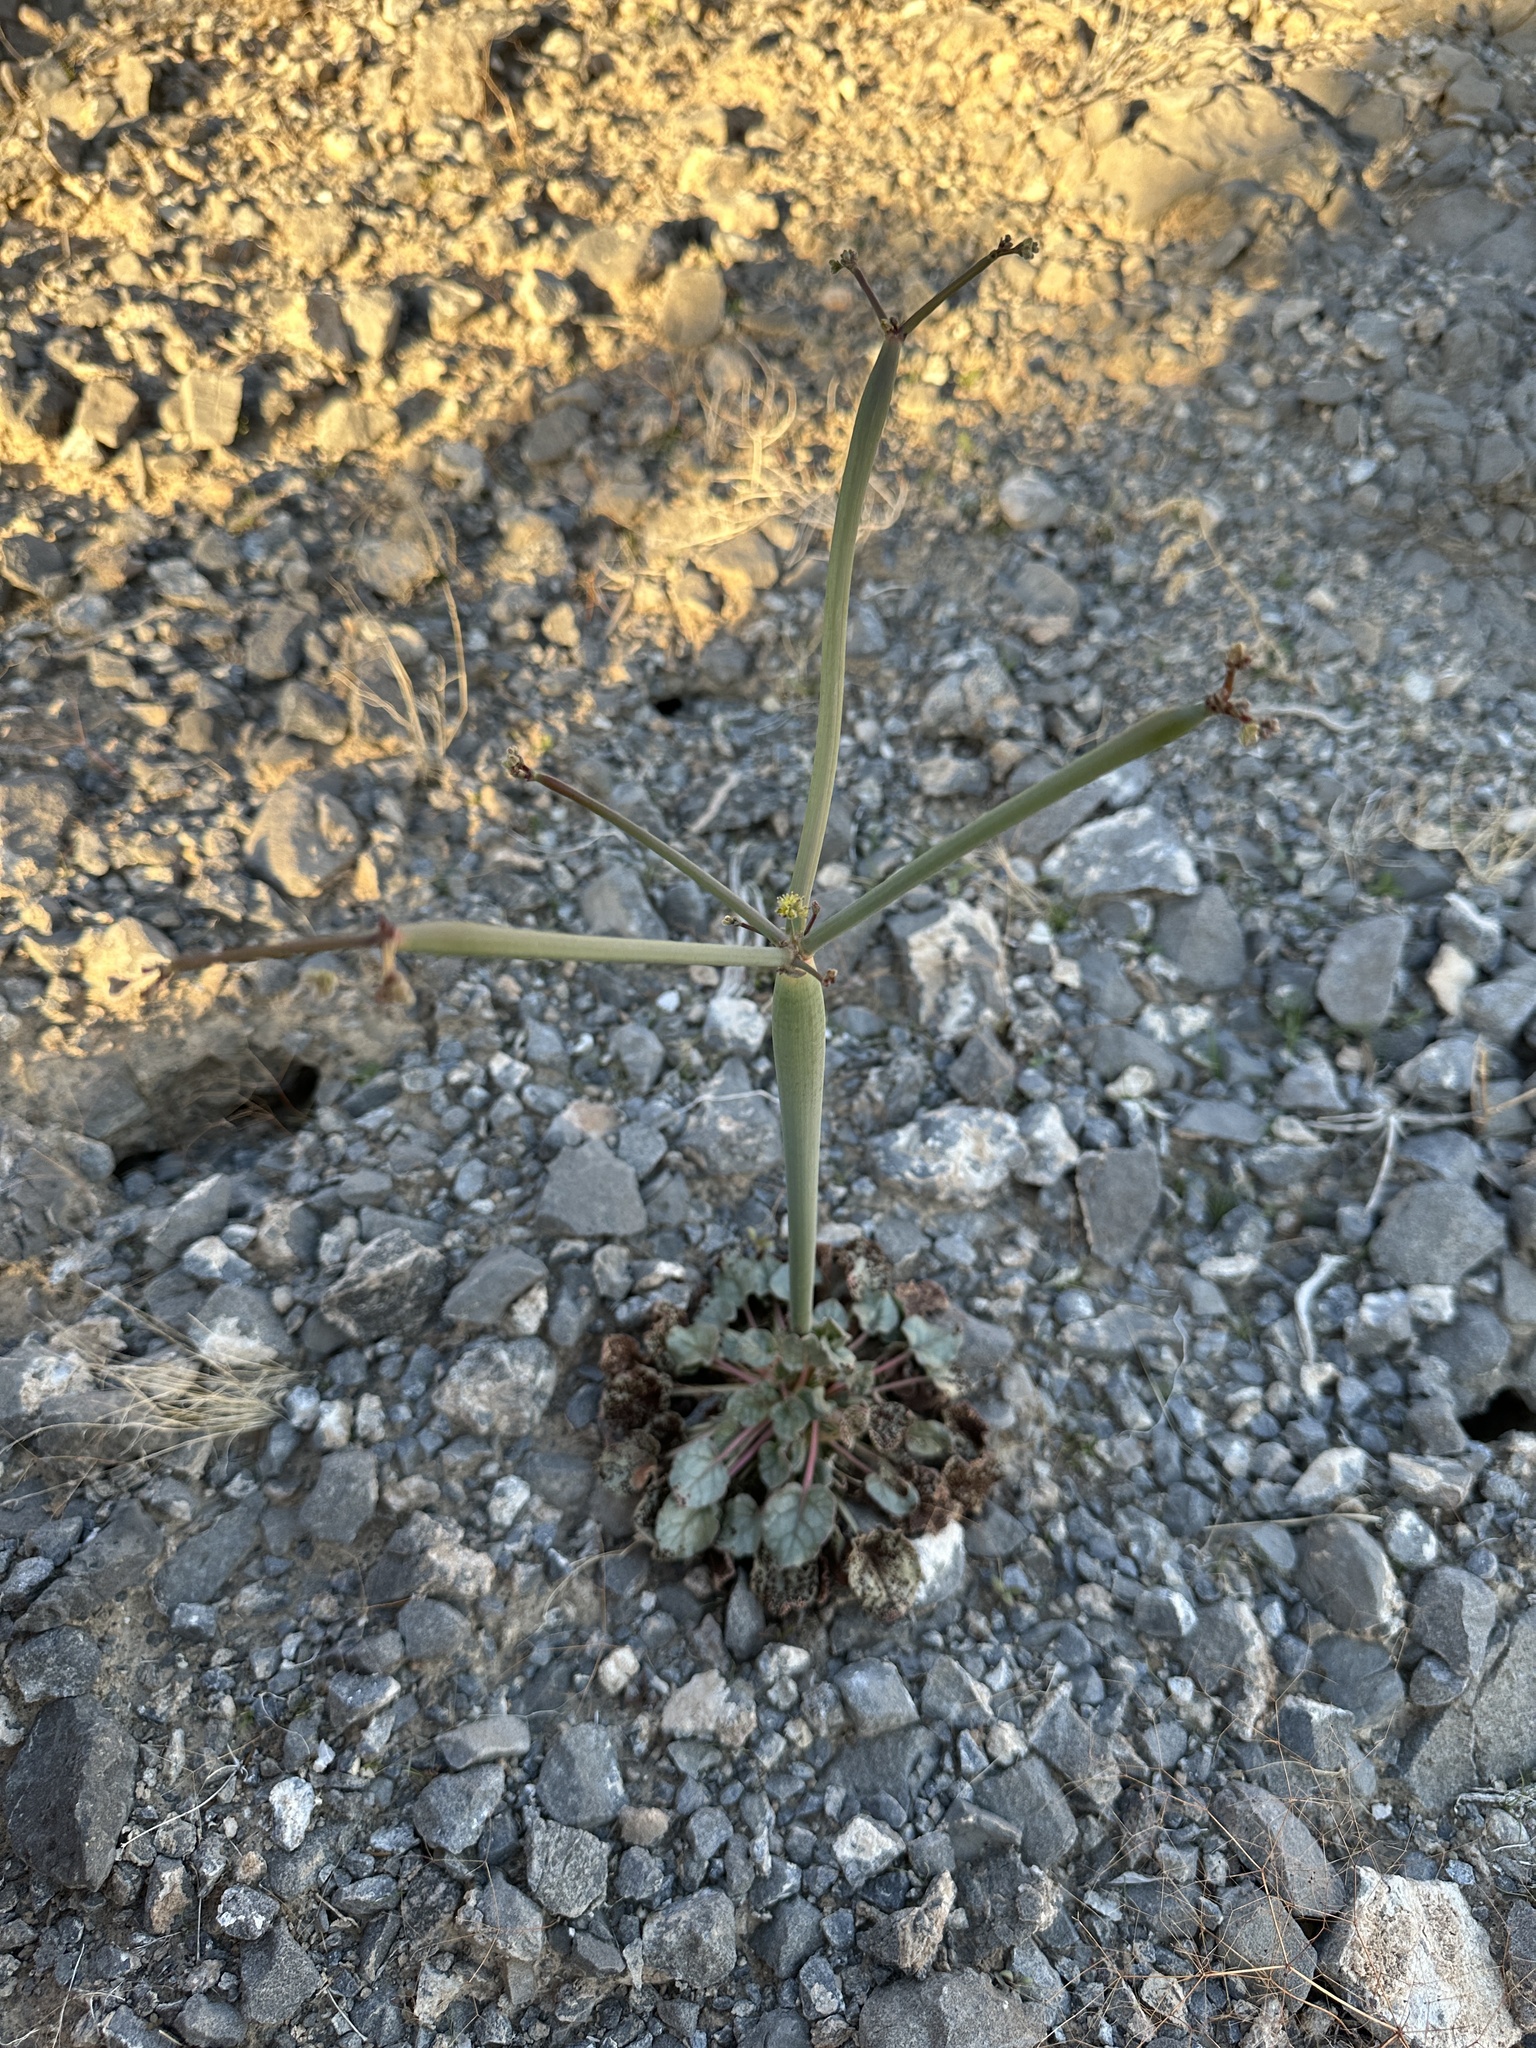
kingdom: Plantae
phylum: Tracheophyta
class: Magnoliopsida
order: Caryophyllales
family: Polygonaceae
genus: Eriogonum
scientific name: Eriogonum inflatum
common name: Desert trumpet
